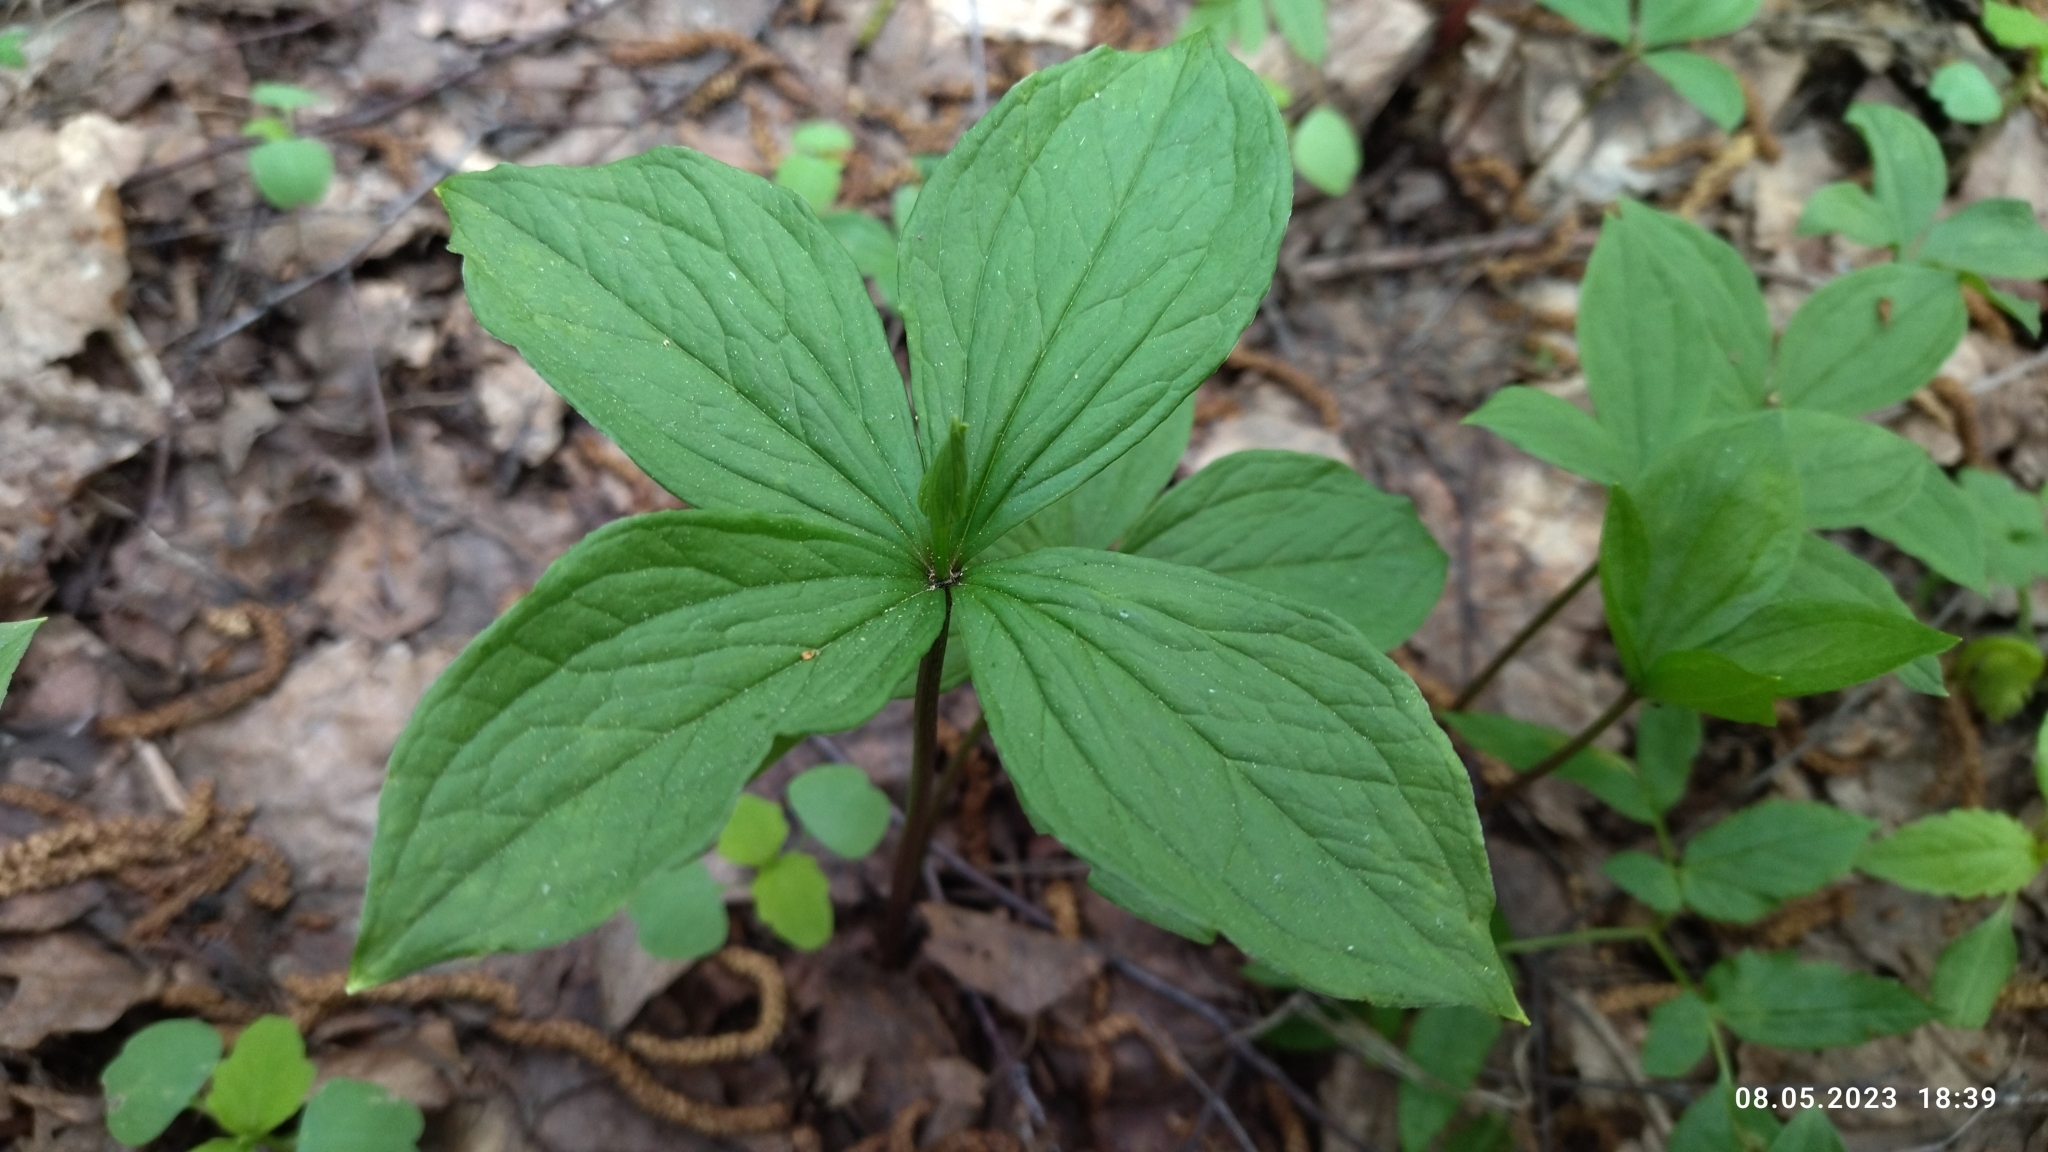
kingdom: Plantae
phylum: Tracheophyta
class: Liliopsida
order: Liliales
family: Melanthiaceae
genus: Paris
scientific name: Paris quadrifolia
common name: Herb-paris
